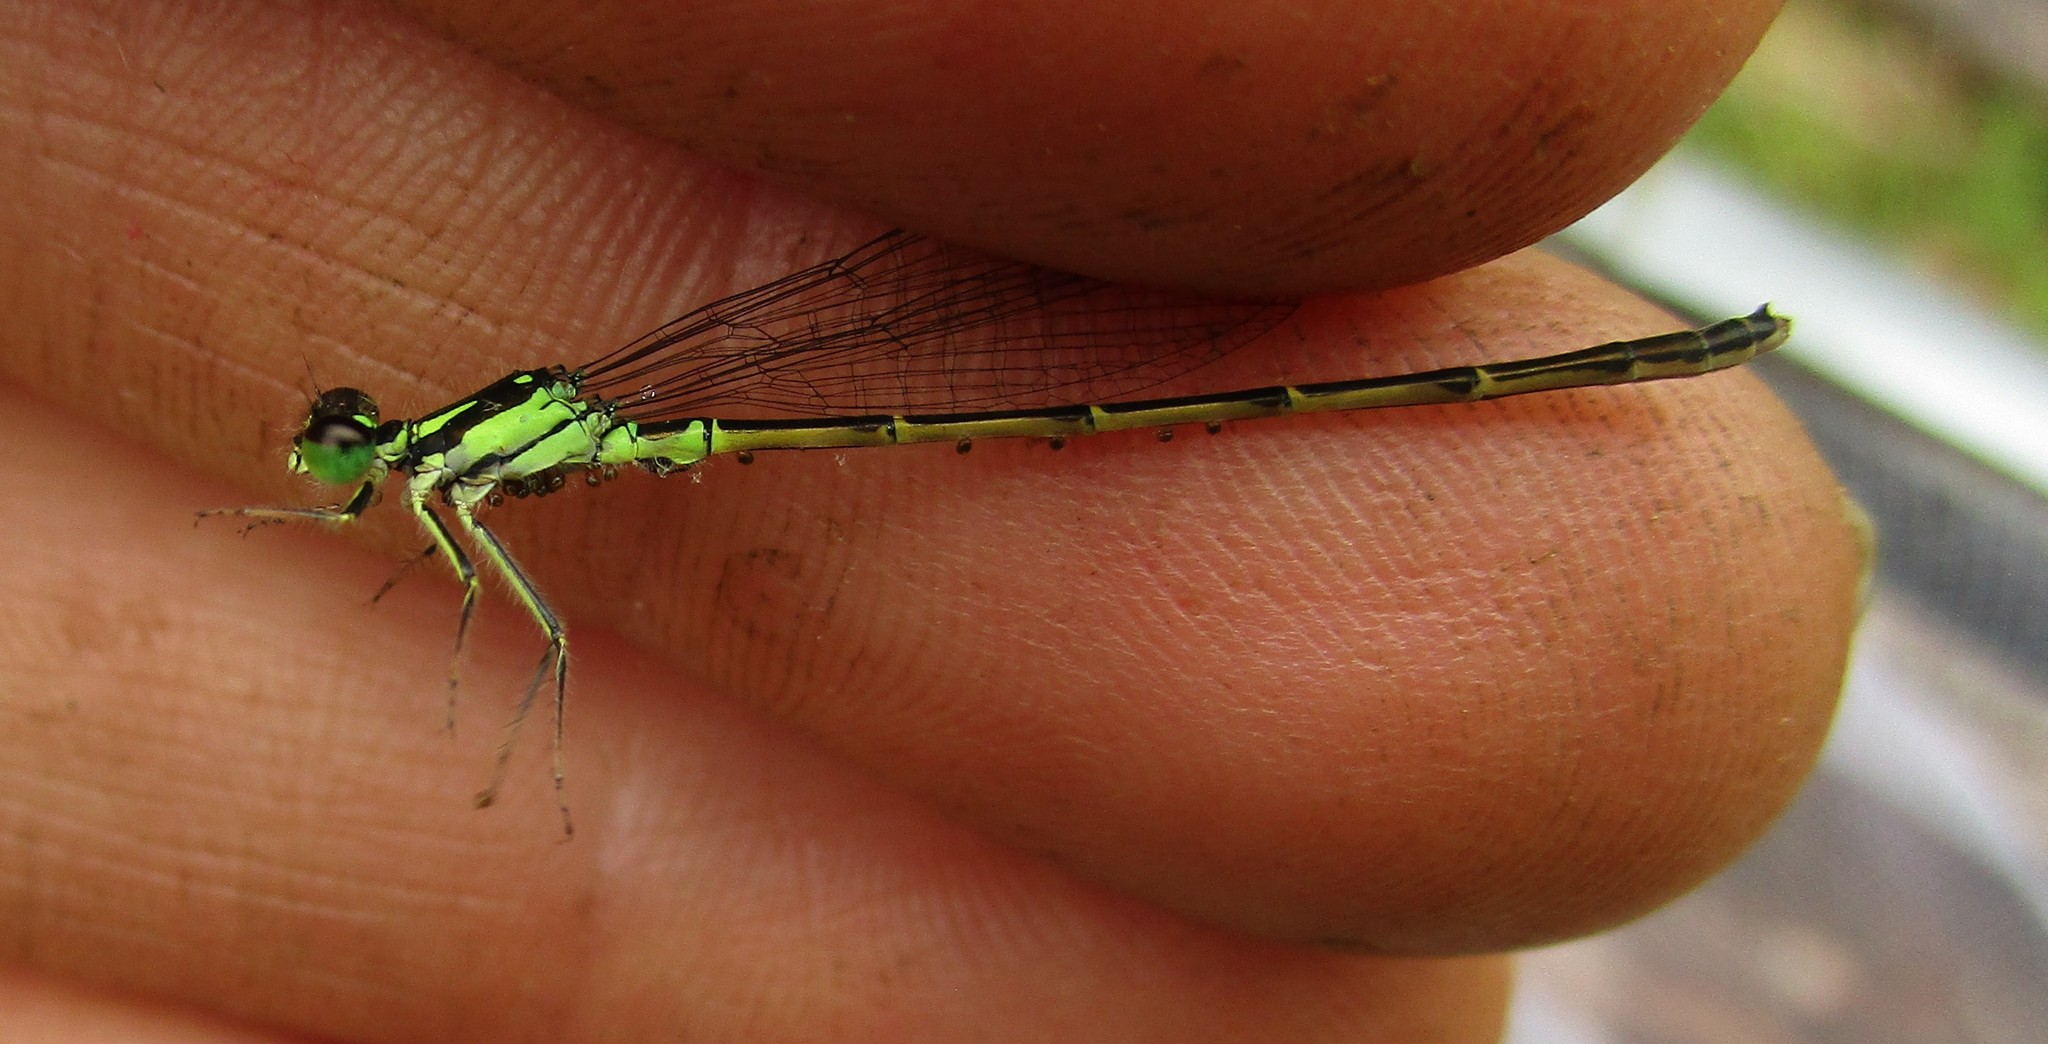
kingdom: Animalia
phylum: Arthropoda
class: Insecta
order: Odonata
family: Coenagrionidae
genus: Ischnura
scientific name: Ischnura posita
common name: Fragile forktail
